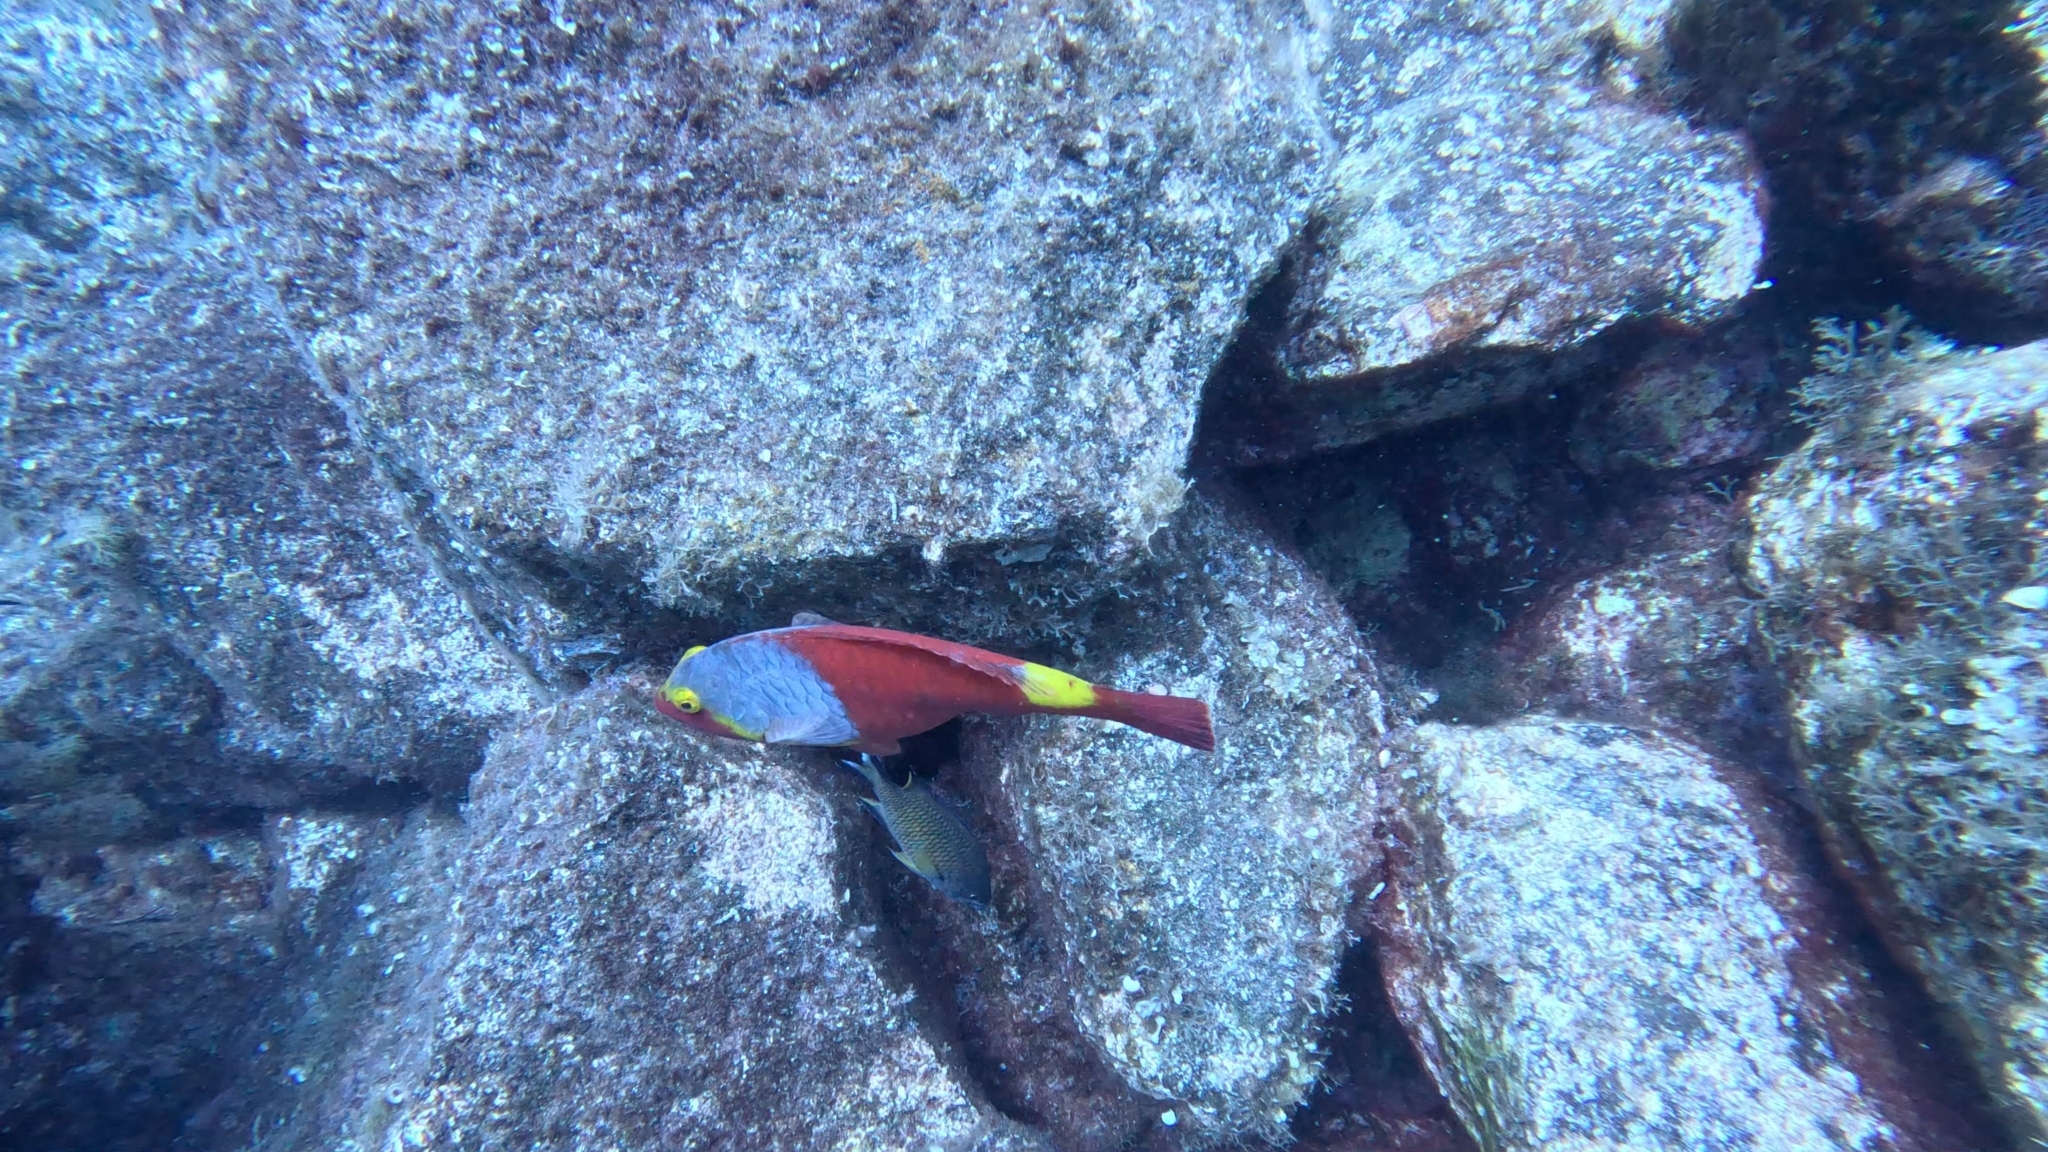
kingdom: Animalia
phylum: Chordata
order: Perciformes
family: Scaridae
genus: Sparisoma
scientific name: Sparisoma cretense
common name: Parrotfish
